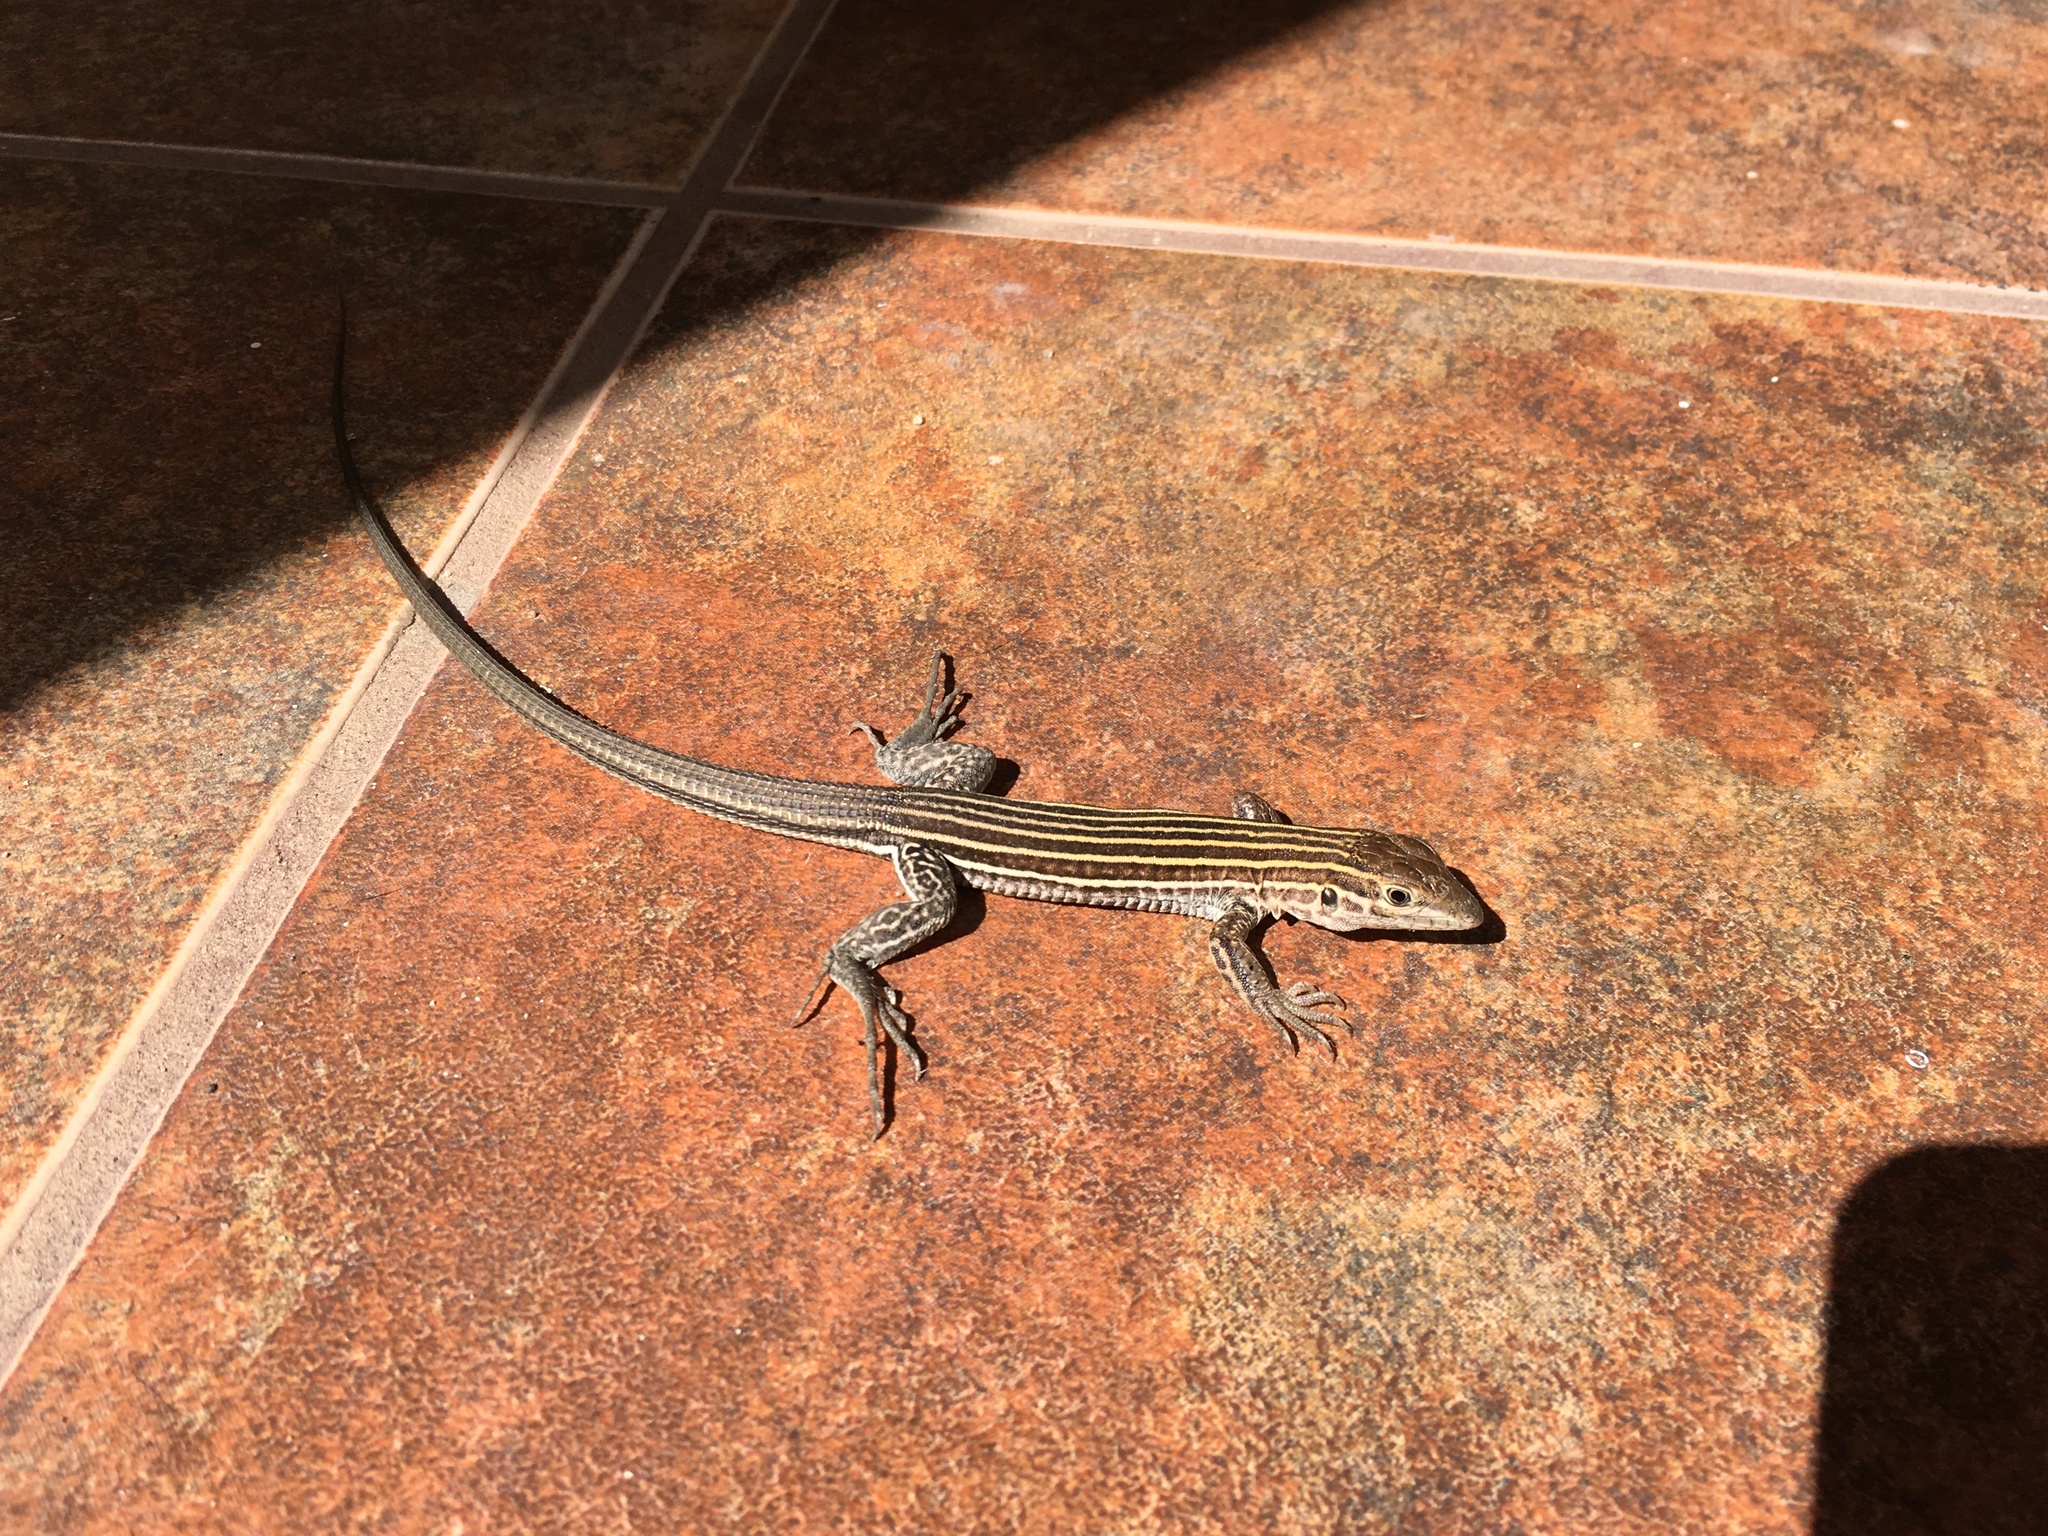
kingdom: Animalia
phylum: Chordata
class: Squamata
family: Teiidae
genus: Aspidoscelis
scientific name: Aspidoscelis sonorae
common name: Sonoran spotted whiptail
